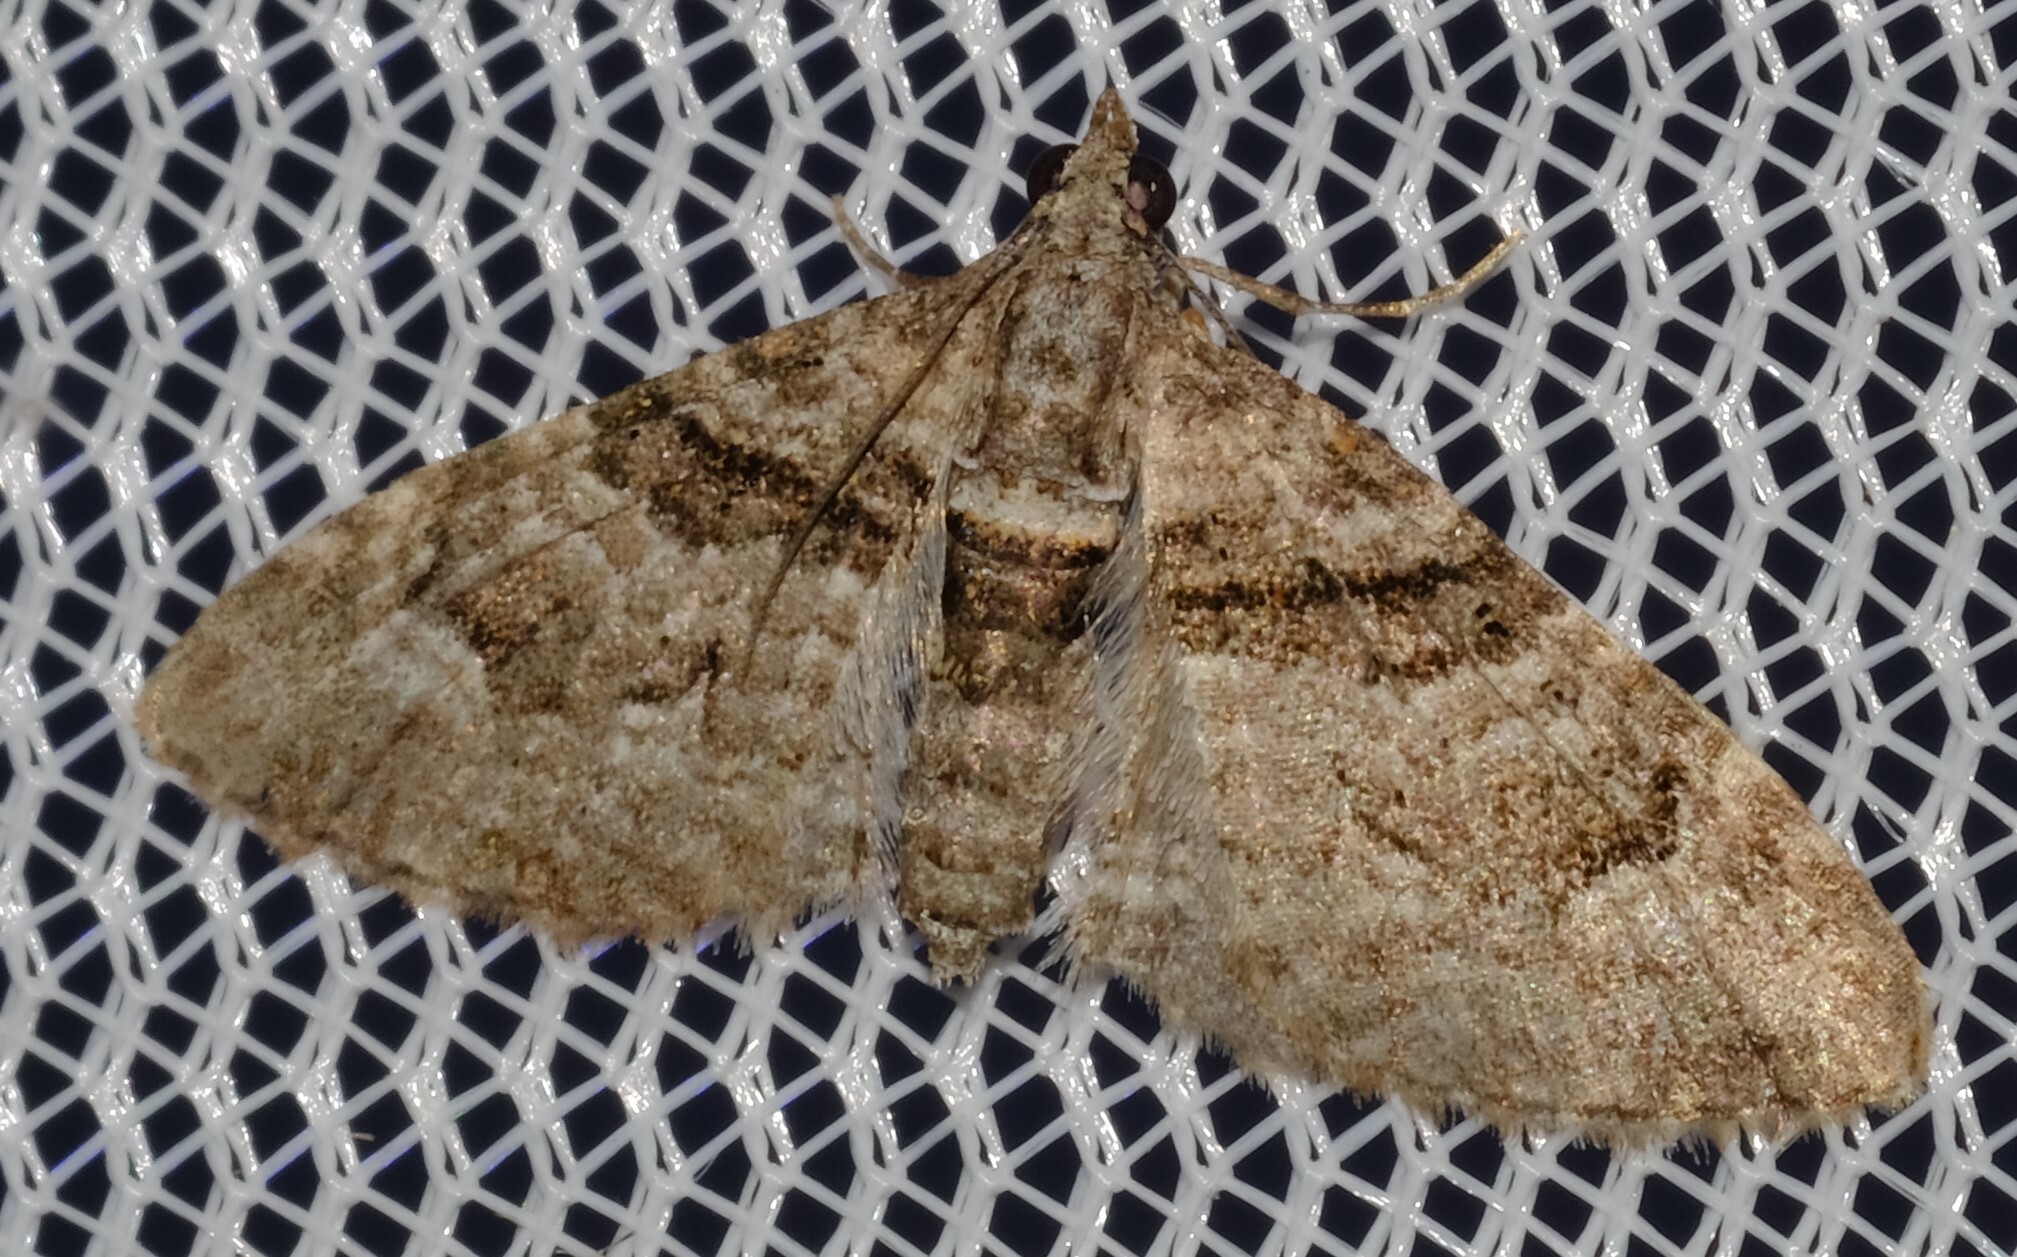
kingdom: Animalia
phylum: Arthropoda
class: Insecta
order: Lepidoptera
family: Geometridae
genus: Phrissogonus
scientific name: Phrissogonus laticostata
